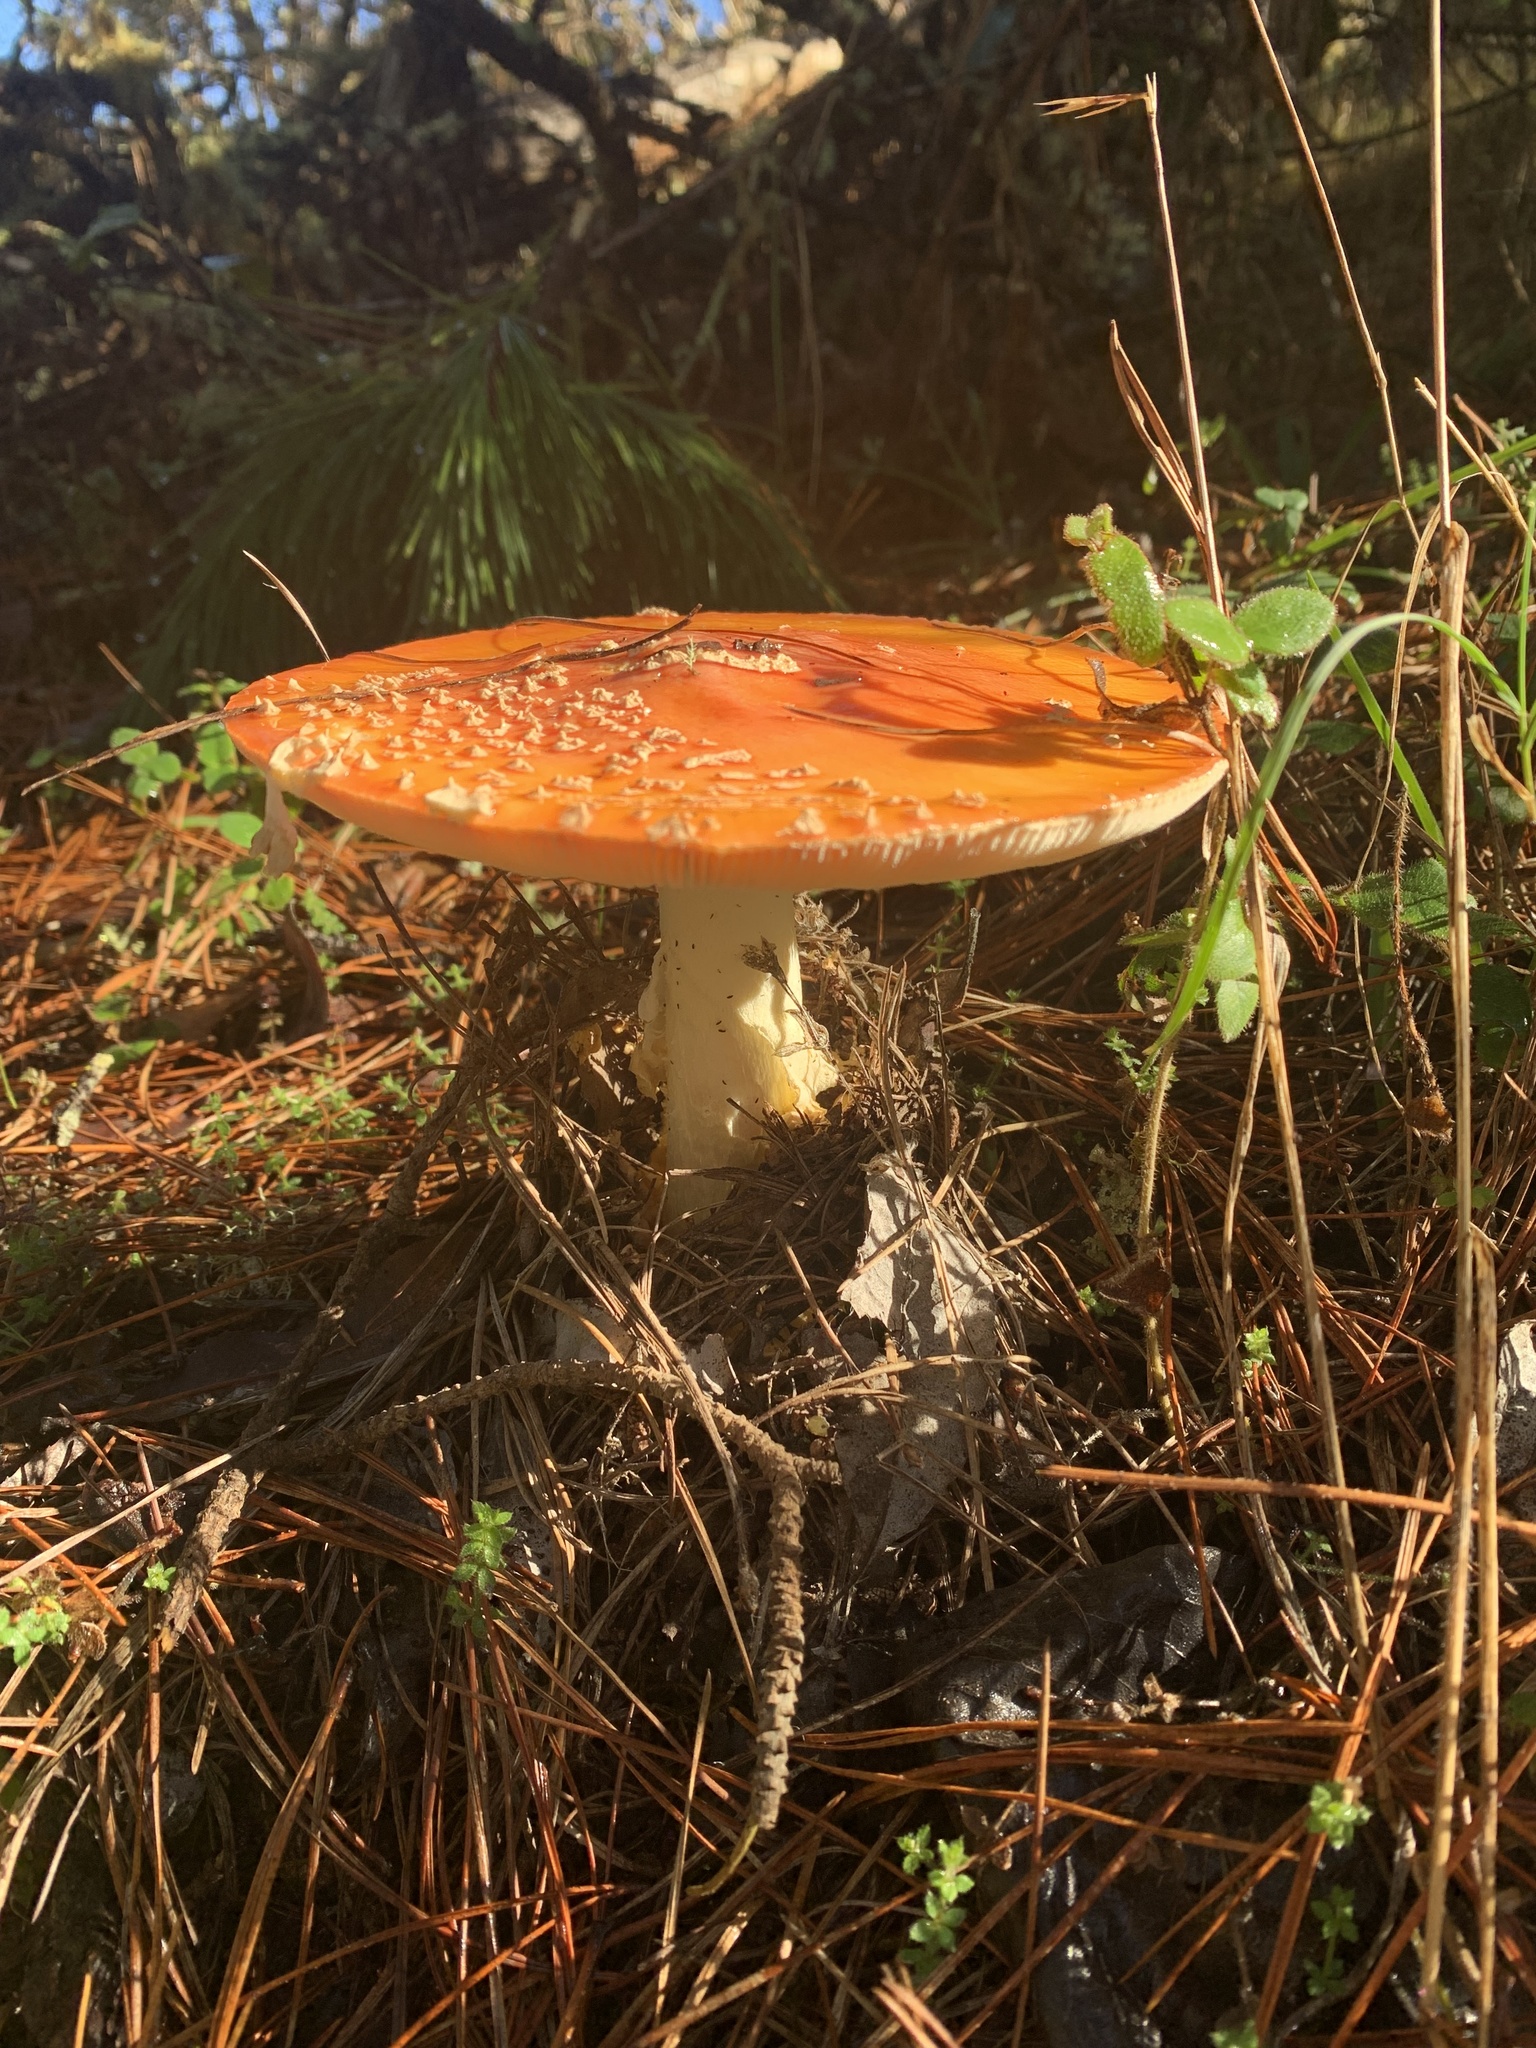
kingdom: Fungi
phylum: Basidiomycota
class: Agaricomycetes
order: Agaricales
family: Amanitaceae
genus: Amanita
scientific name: Amanita muscaria
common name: Fly agaric
